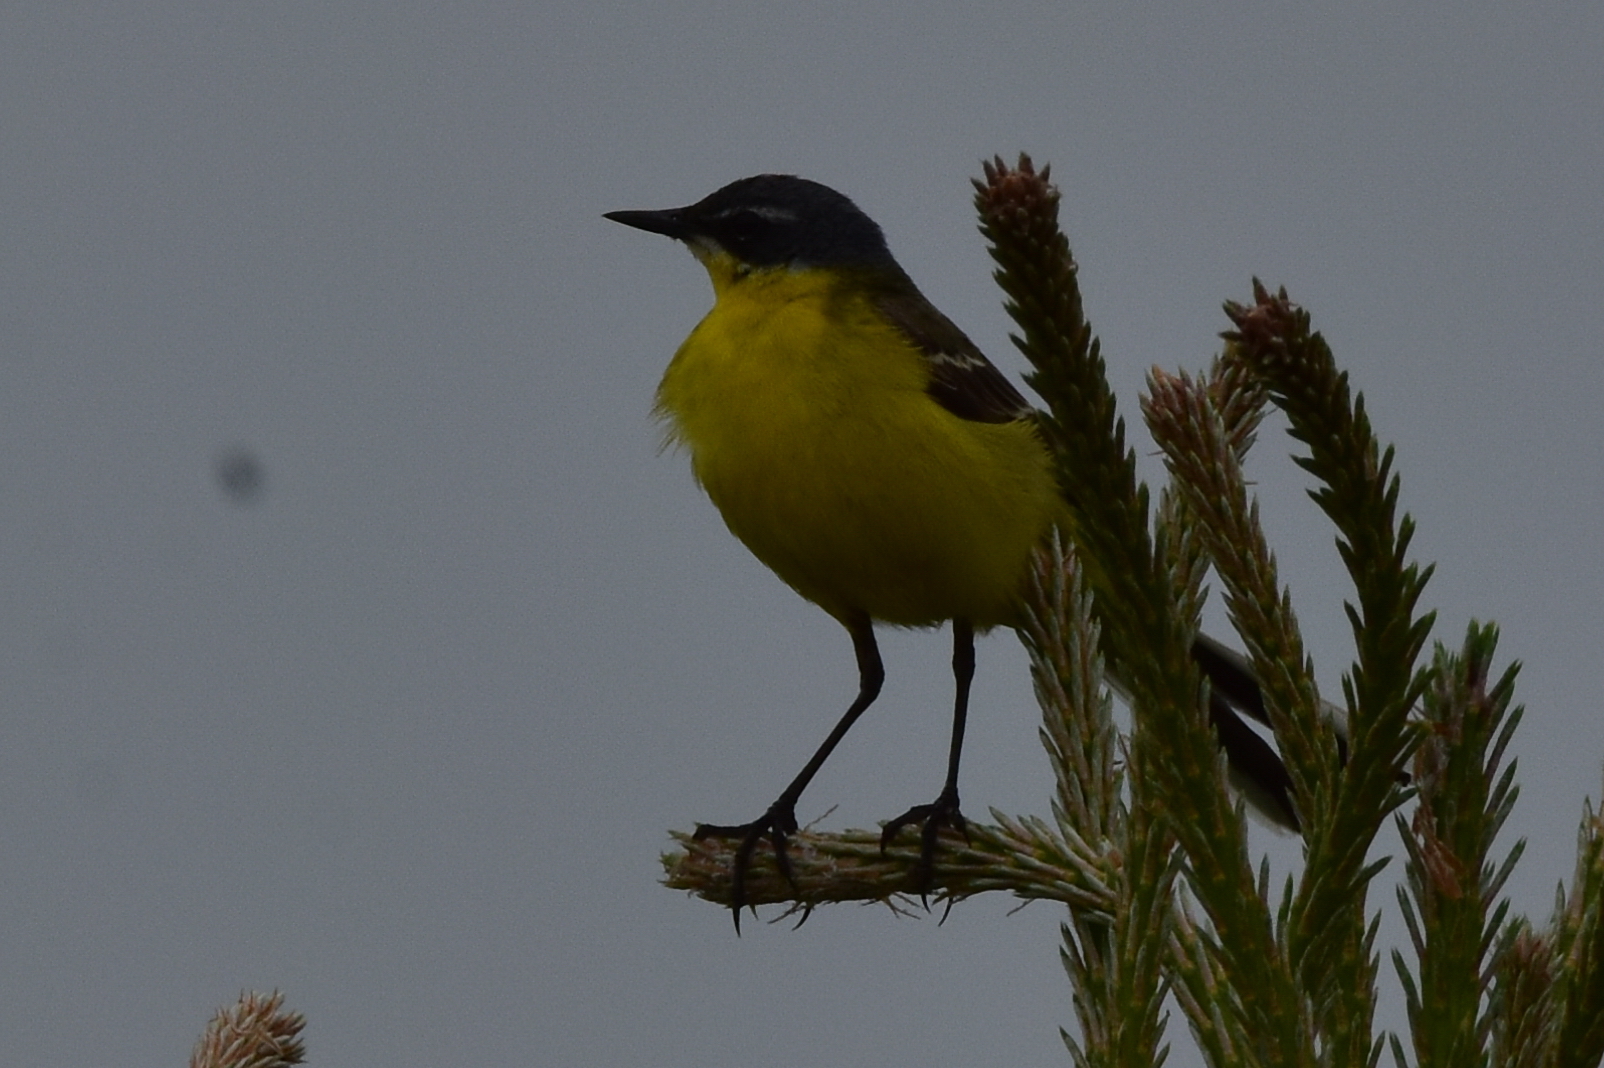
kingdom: Animalia
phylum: Chordata
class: Aves
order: Passeriformes
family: Motacillidae
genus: Motacilla
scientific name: Motacilla flava
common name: Western yellow wagtail
